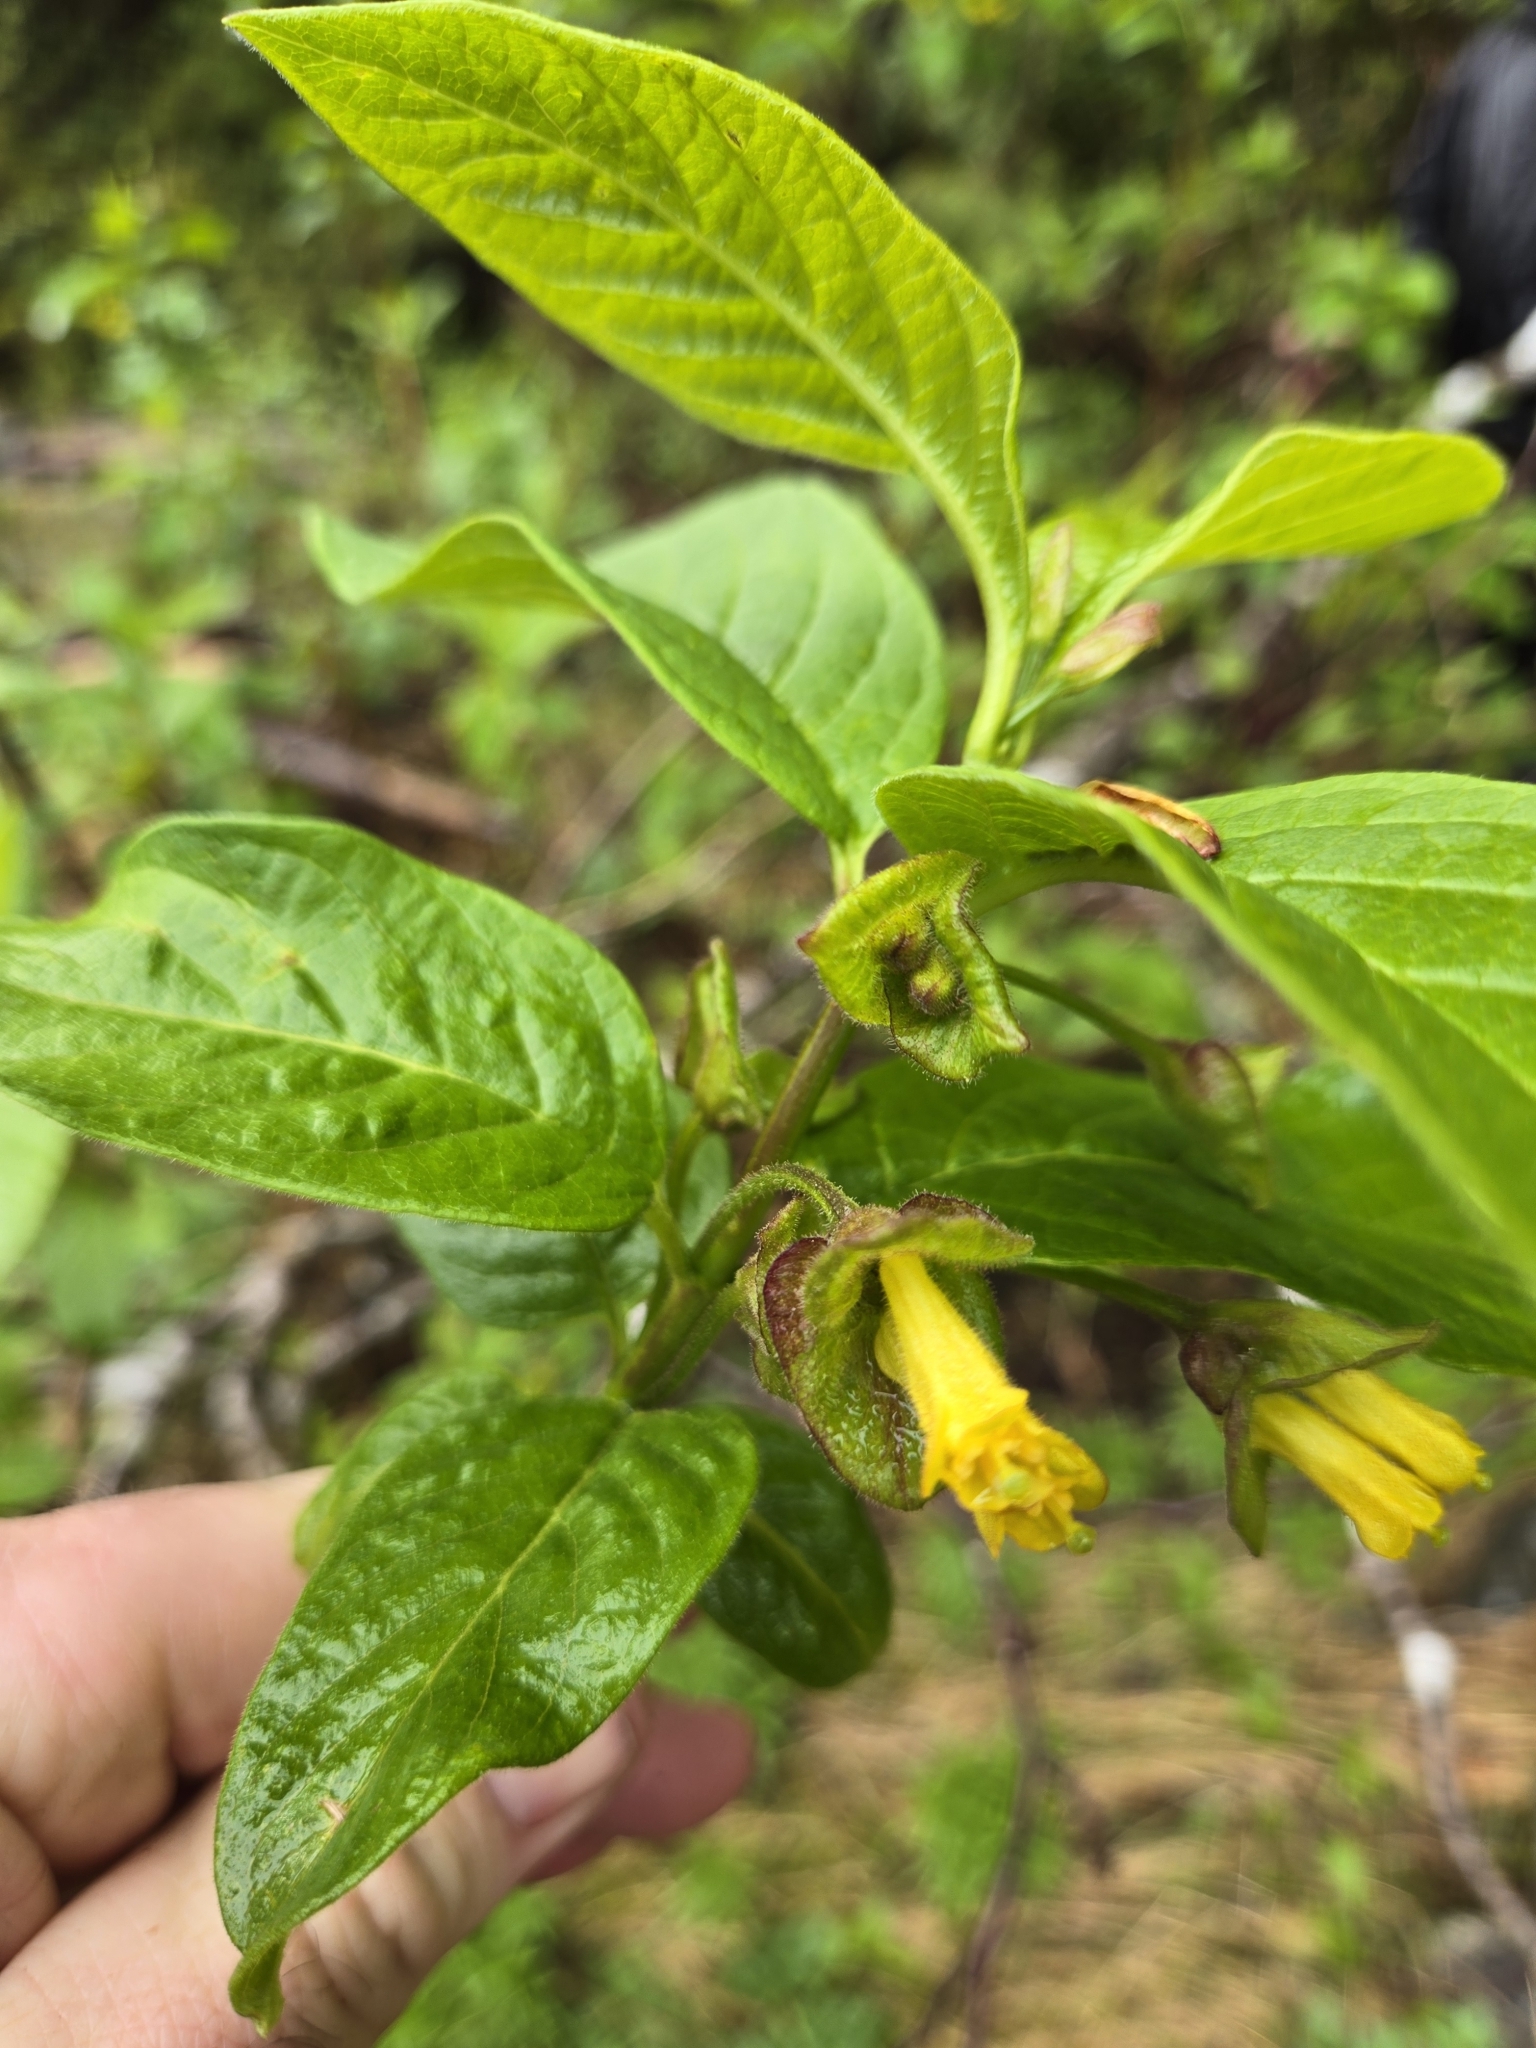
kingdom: Plantae
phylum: Tracheophyta
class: Magnoliopsida
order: Dipsacales
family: Caprifoliaceae
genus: Lonicera
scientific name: Lonicera involucrata
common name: Californian honeysuckle
